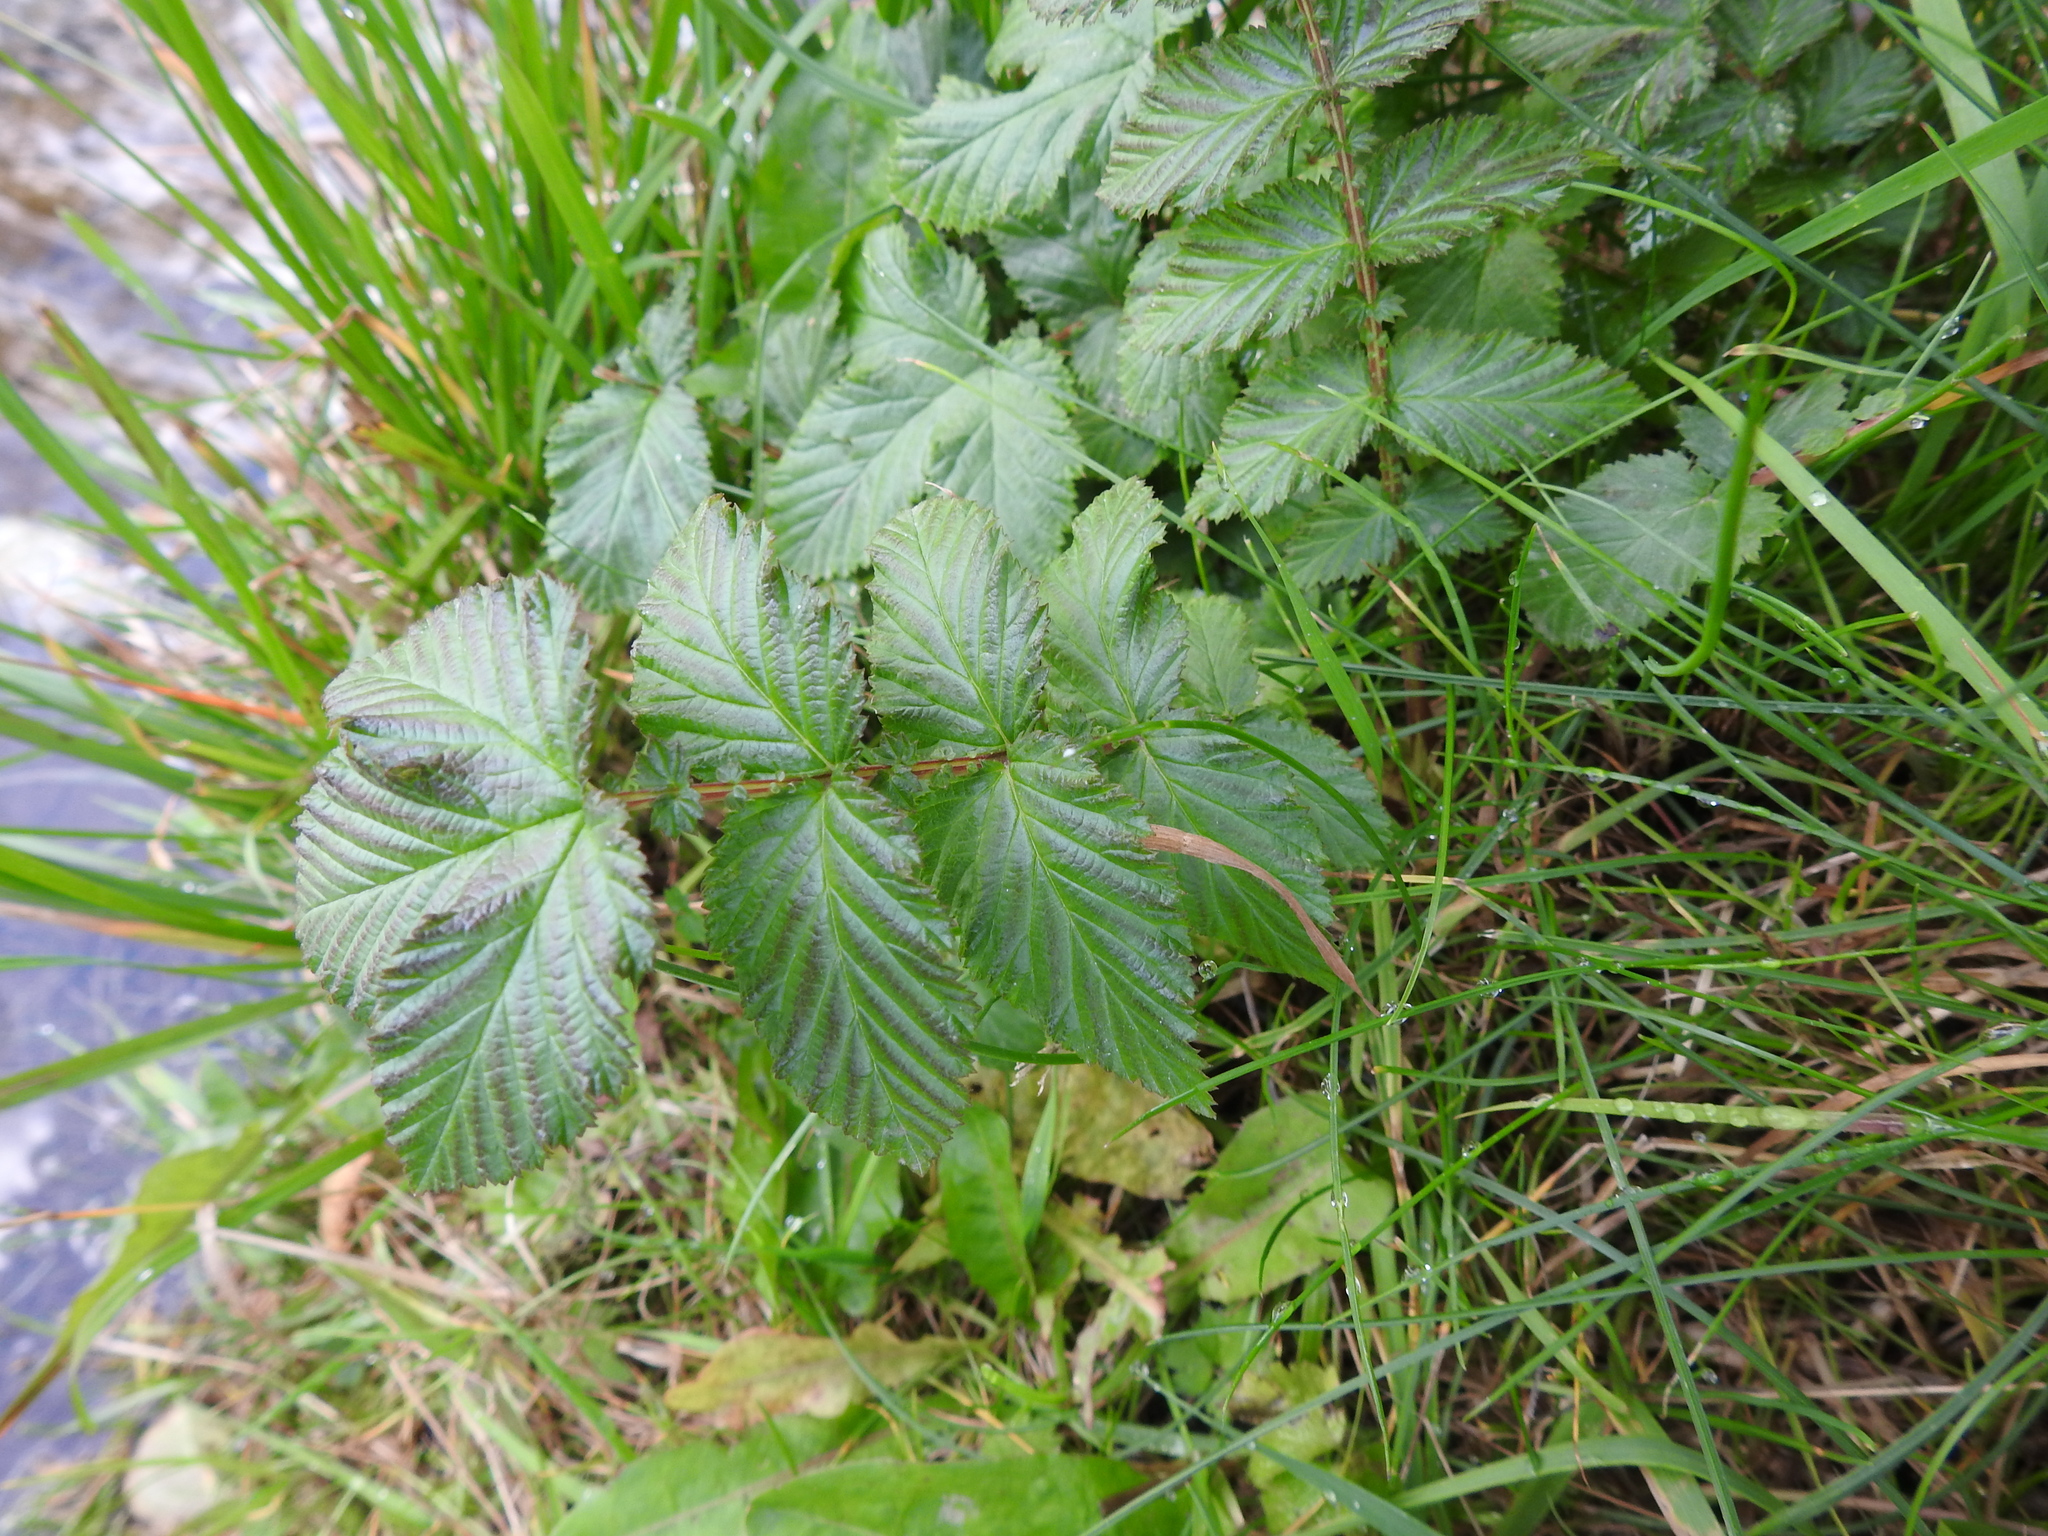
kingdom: Plantae
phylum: Tracheophyta
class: Magnoliopsida
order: Rosales
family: Rosaceae
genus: Filipendula
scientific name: Filipendula ulmaria
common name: Meadowsweet
